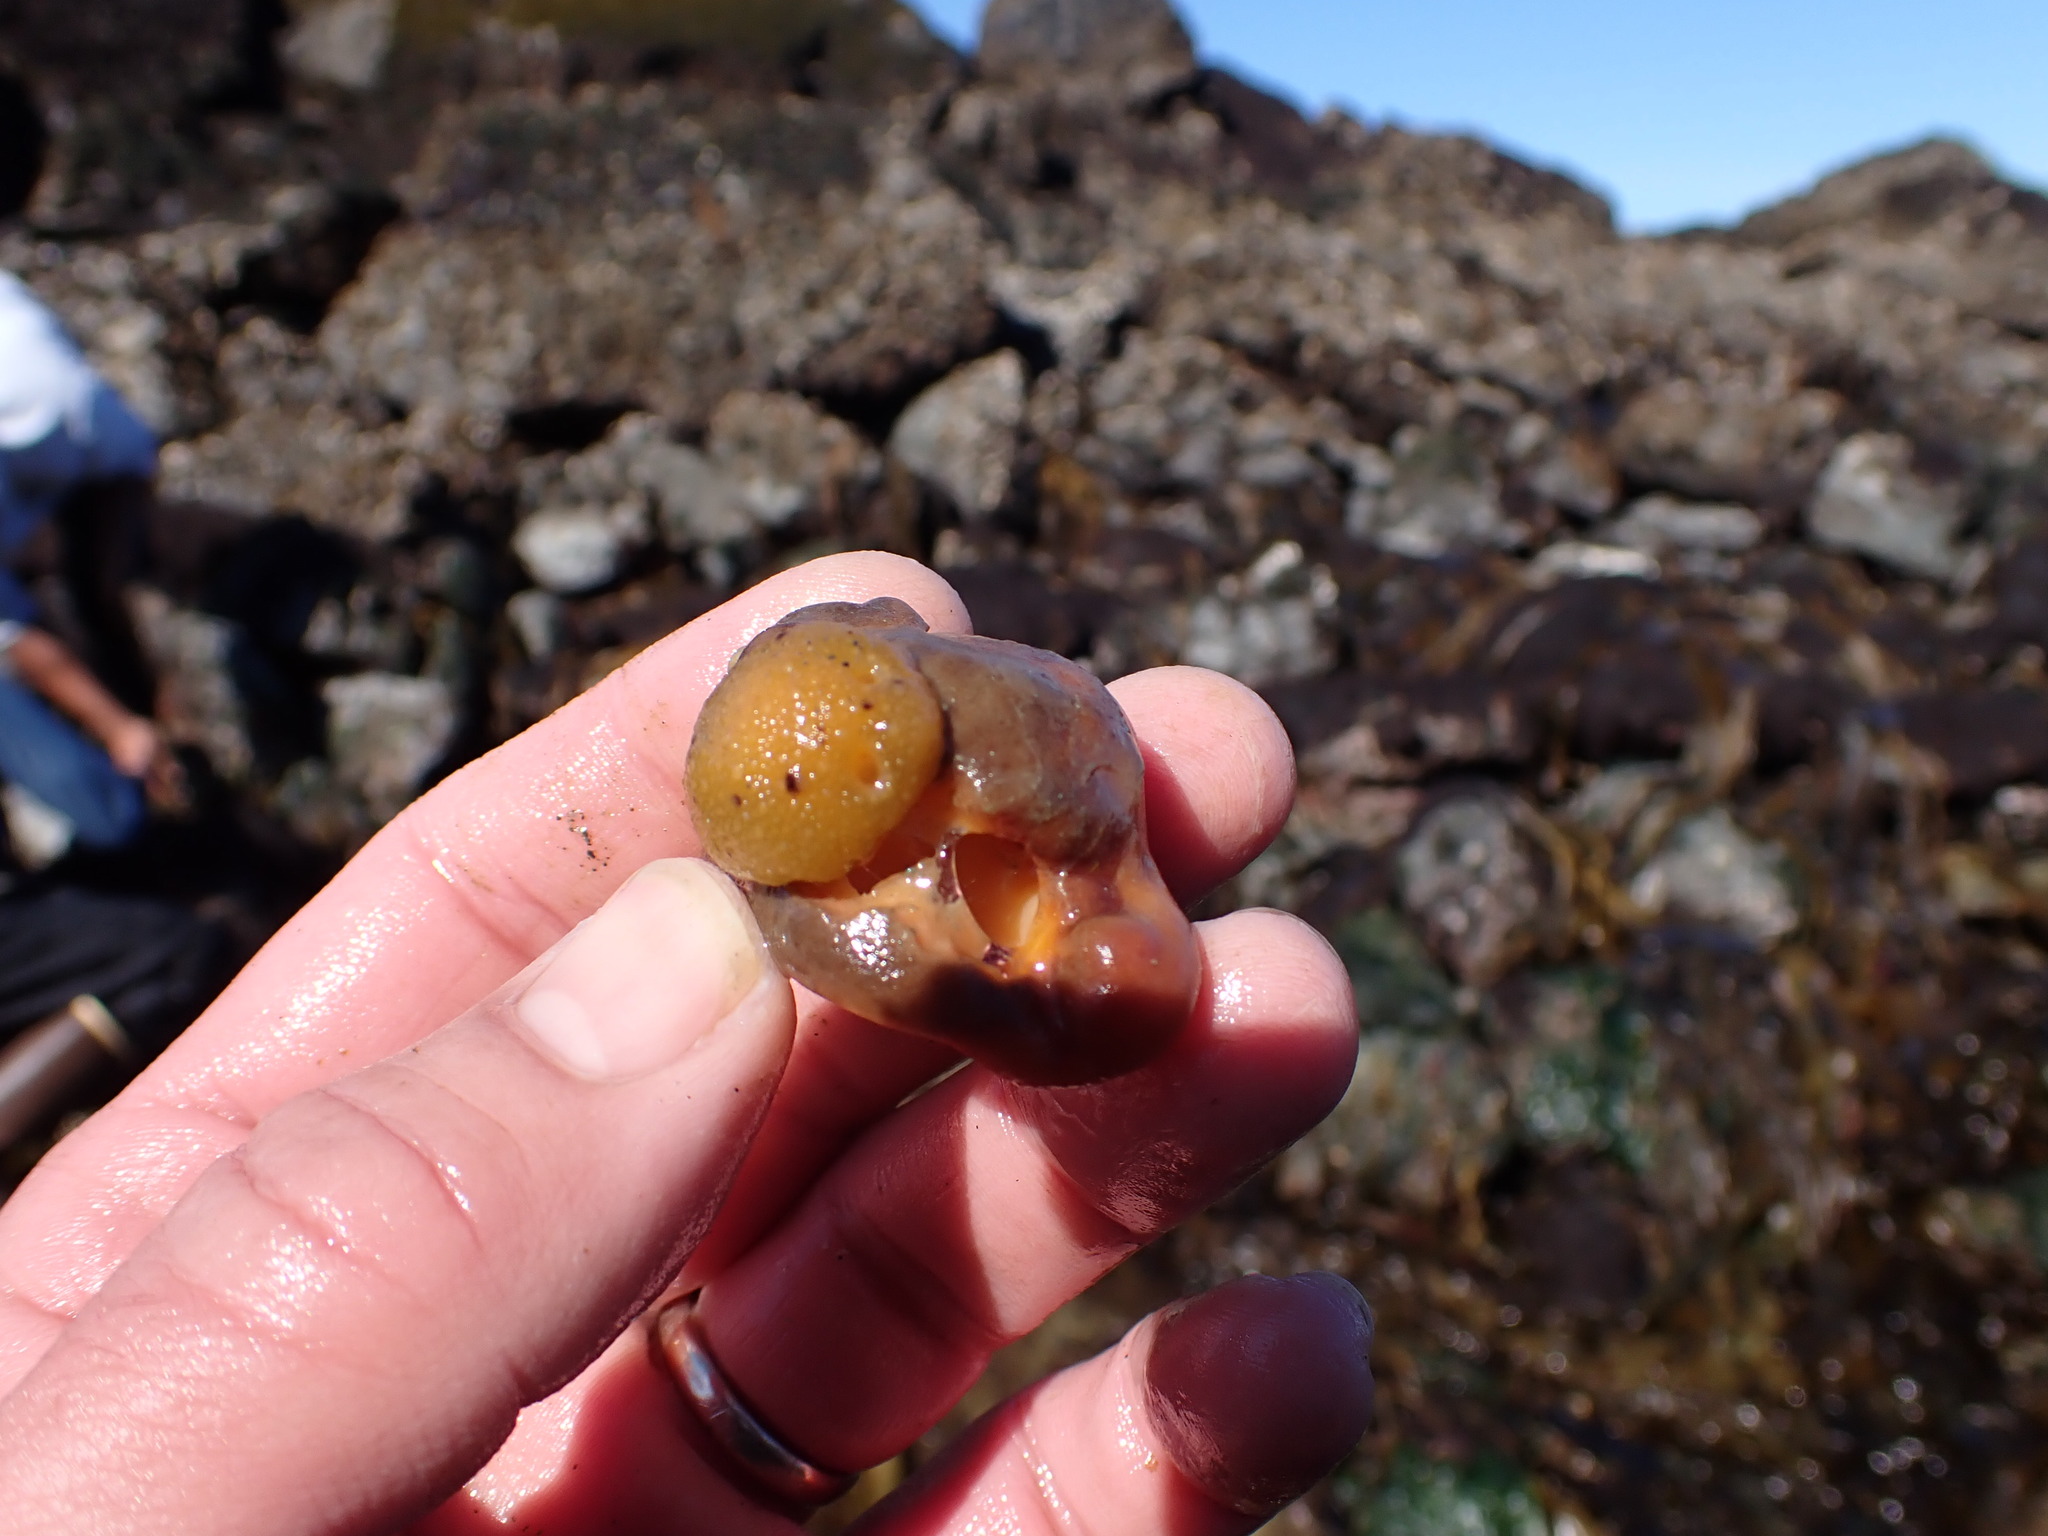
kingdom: Animalia
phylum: Mollusca
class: Gastropoda
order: Nudibranchia
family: Dorididae
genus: Doris
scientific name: Doris montereyensis
